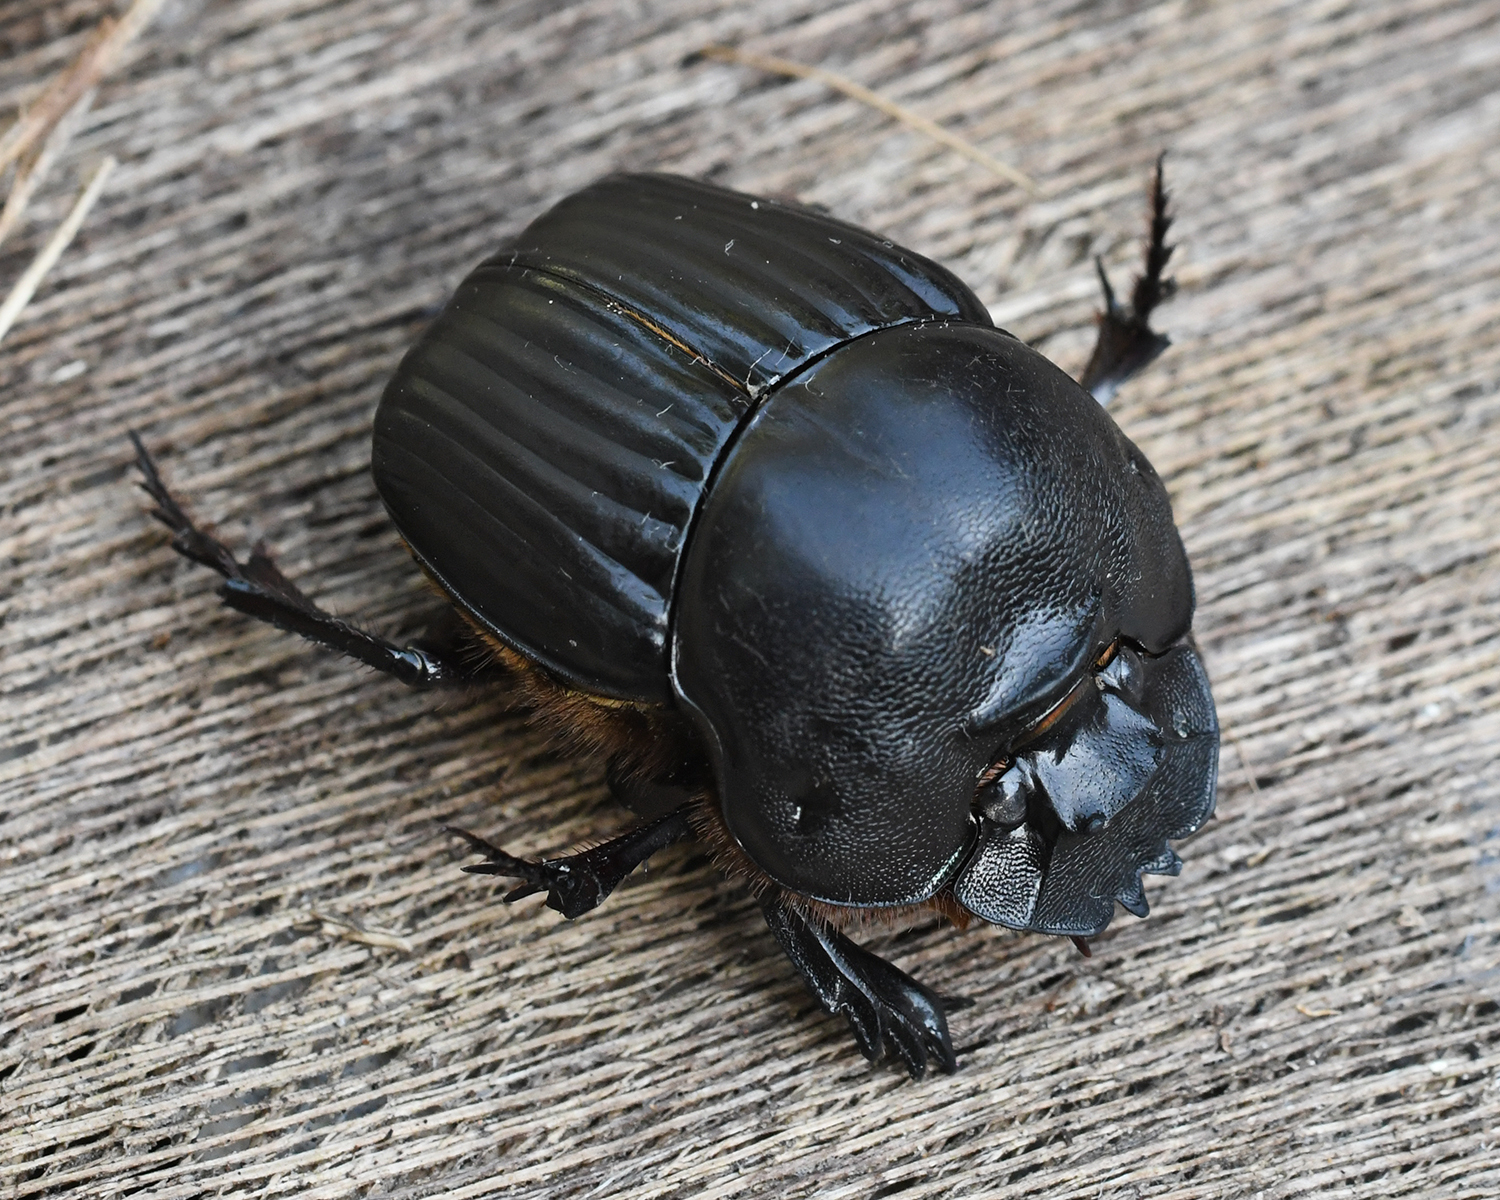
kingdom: Animalia
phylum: Arthropoda
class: Insecta
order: Coleoptera
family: Scarabaeidae
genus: Coprophanaeus
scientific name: Coprophanaeus dardanus
